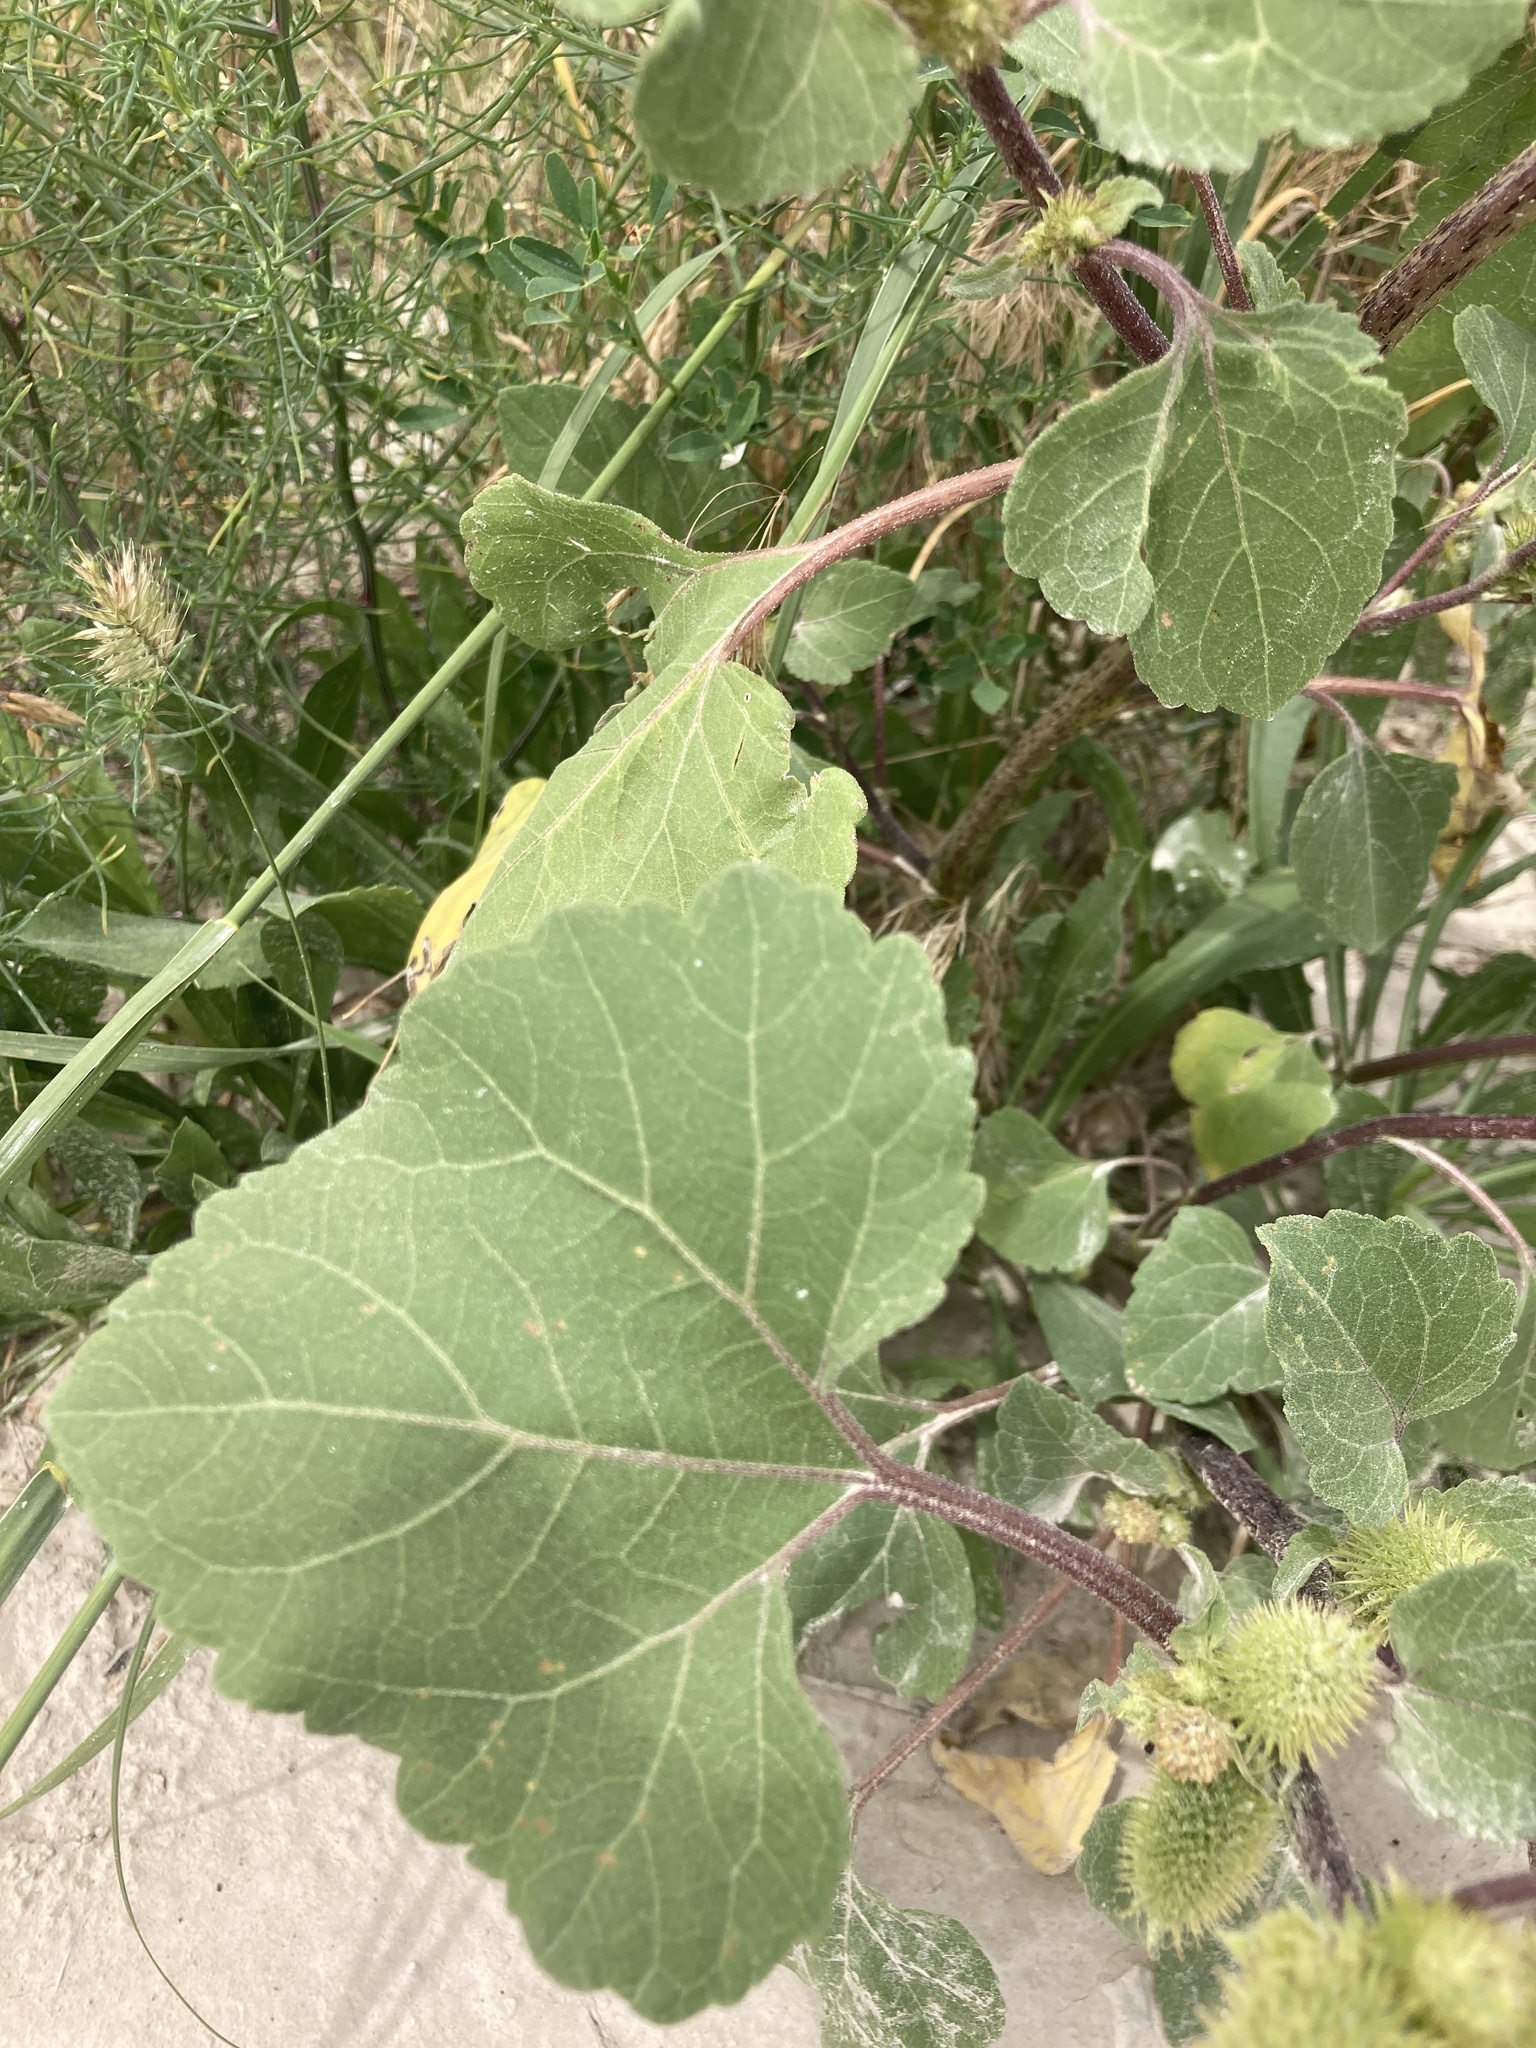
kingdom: Plantae
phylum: Tracheophyta
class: Magnoliopsida
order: Asterales
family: Asteraceae
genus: Xanthium
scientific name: Xanthium strumarium
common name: Rough cocklebur
